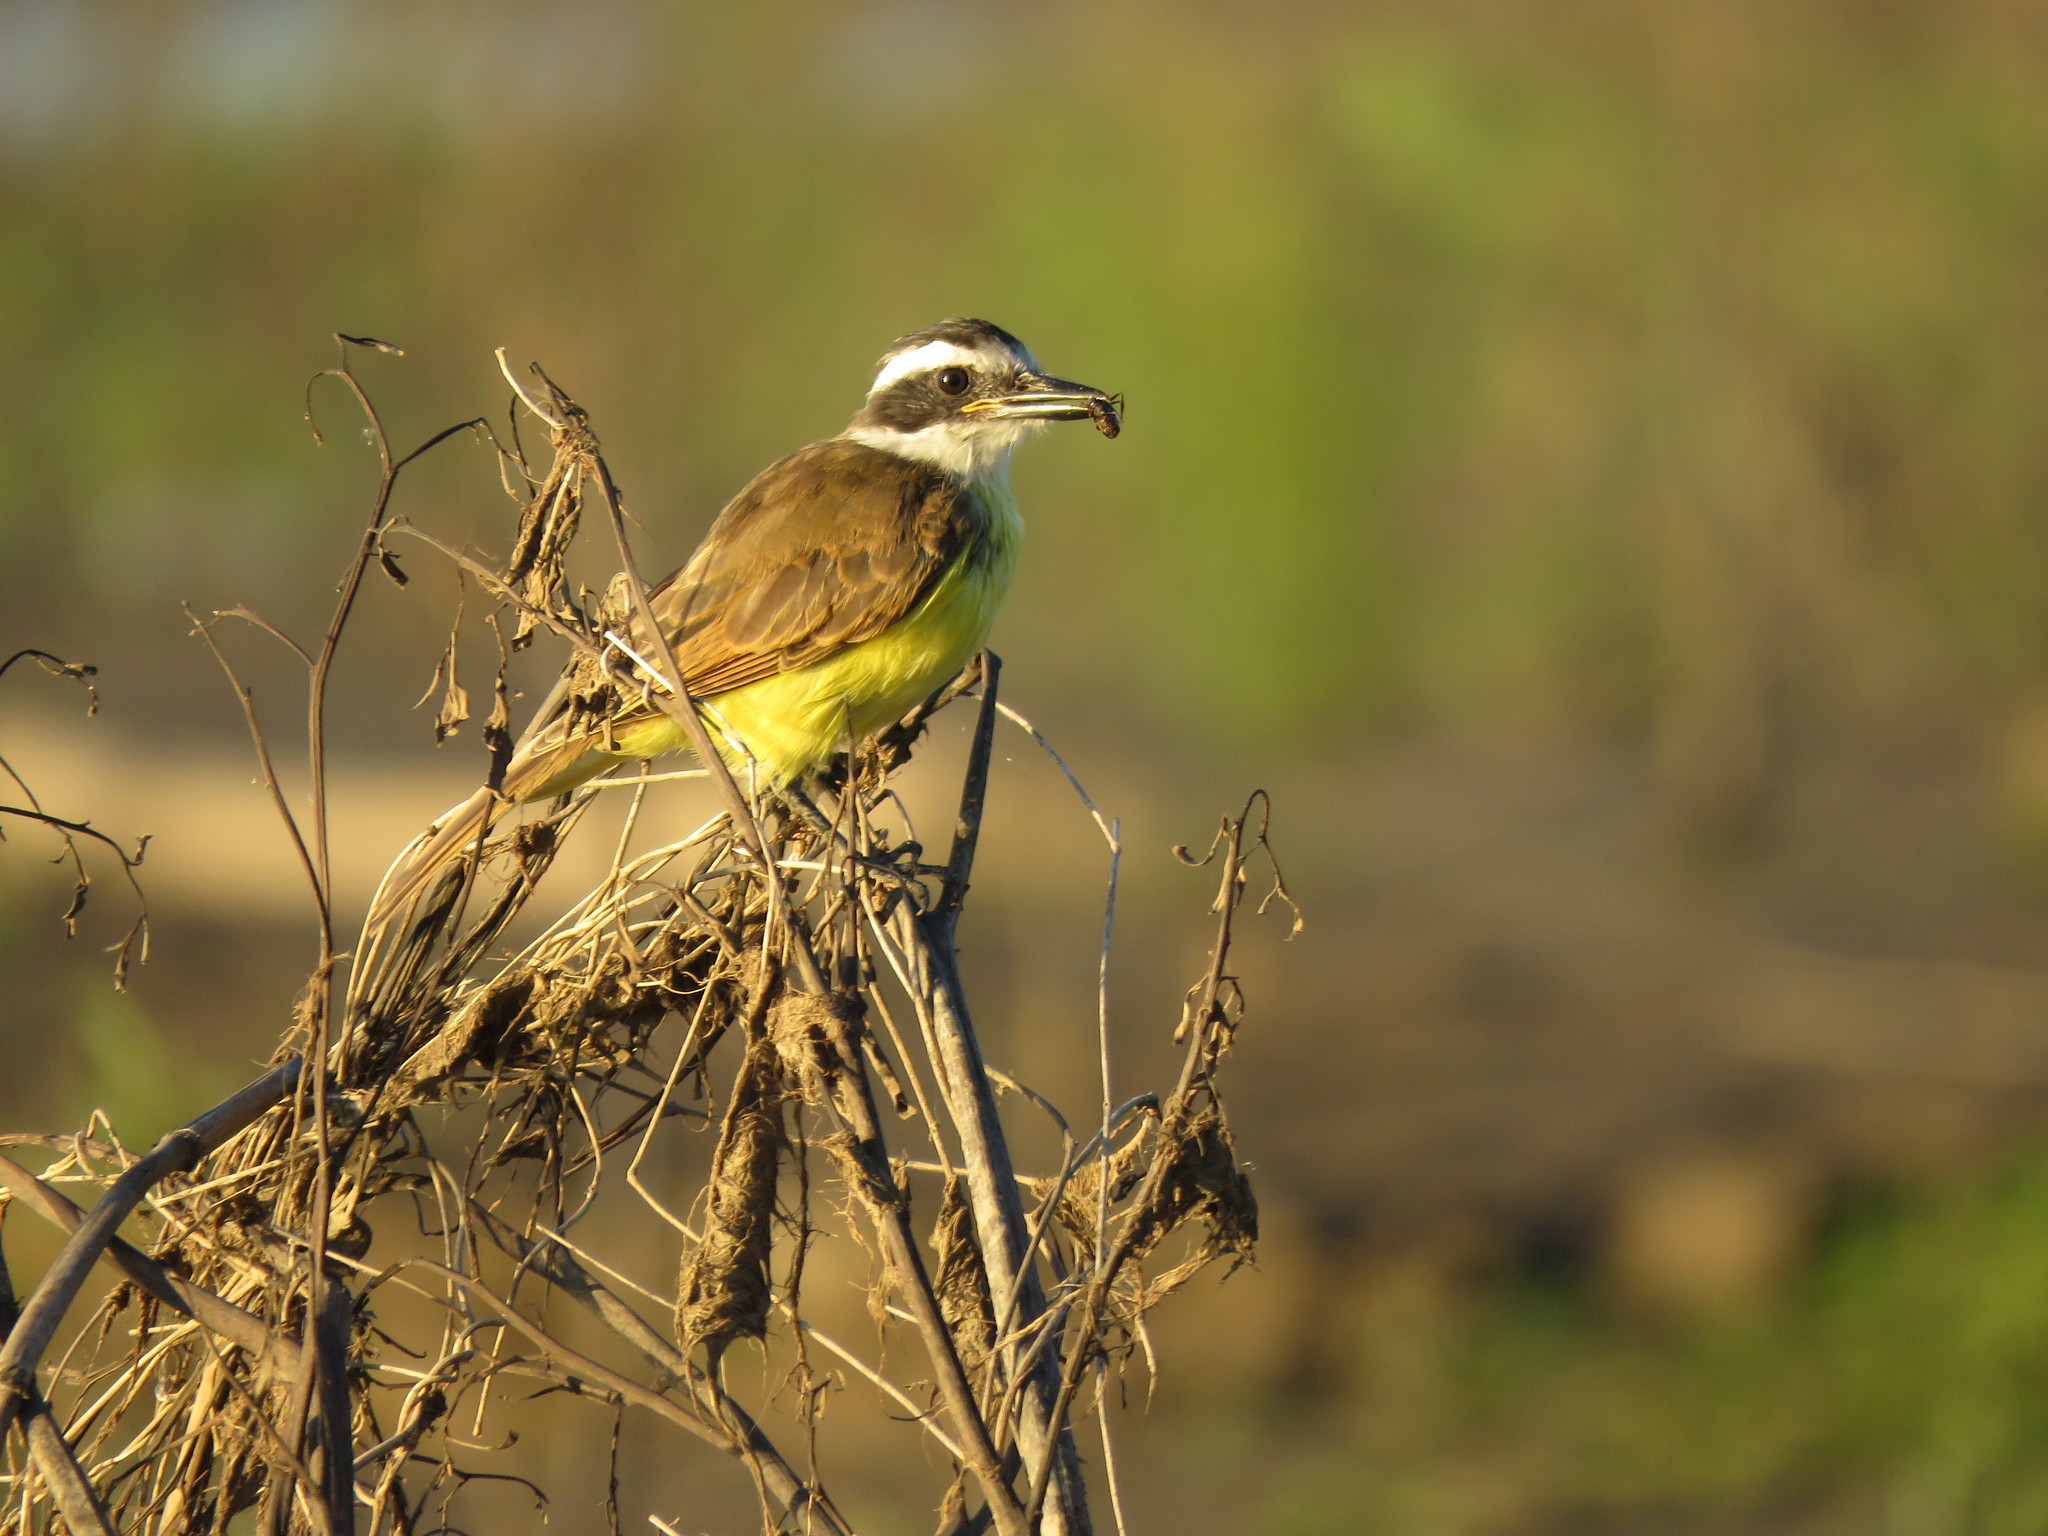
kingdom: Animalia
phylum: Chordata
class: Aves
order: Passeriformes
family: Tyrannidae
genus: Pitangus
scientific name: Pitangus sulphuratus
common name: Great kiskadee
